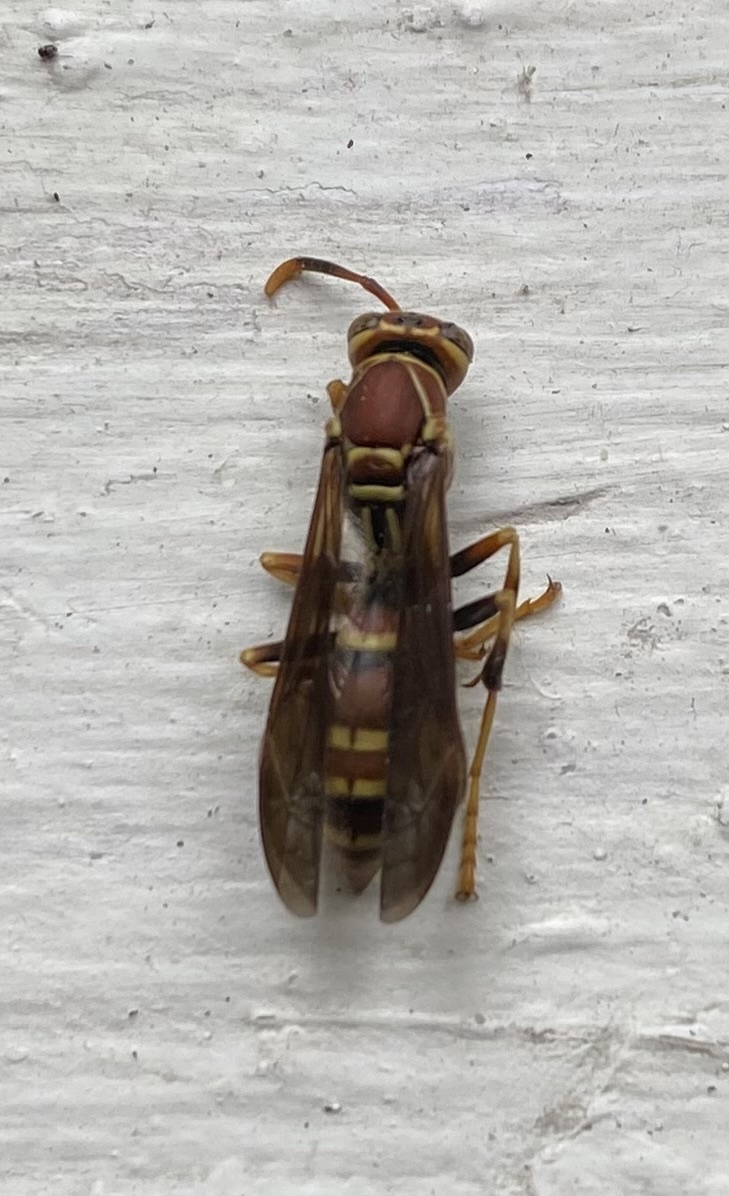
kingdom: Animalia
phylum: Arthropoda
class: Insecta
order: Hymenoptera
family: Eumenidae
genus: Polistes
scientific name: Polistes exclamans
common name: Paper wasp
